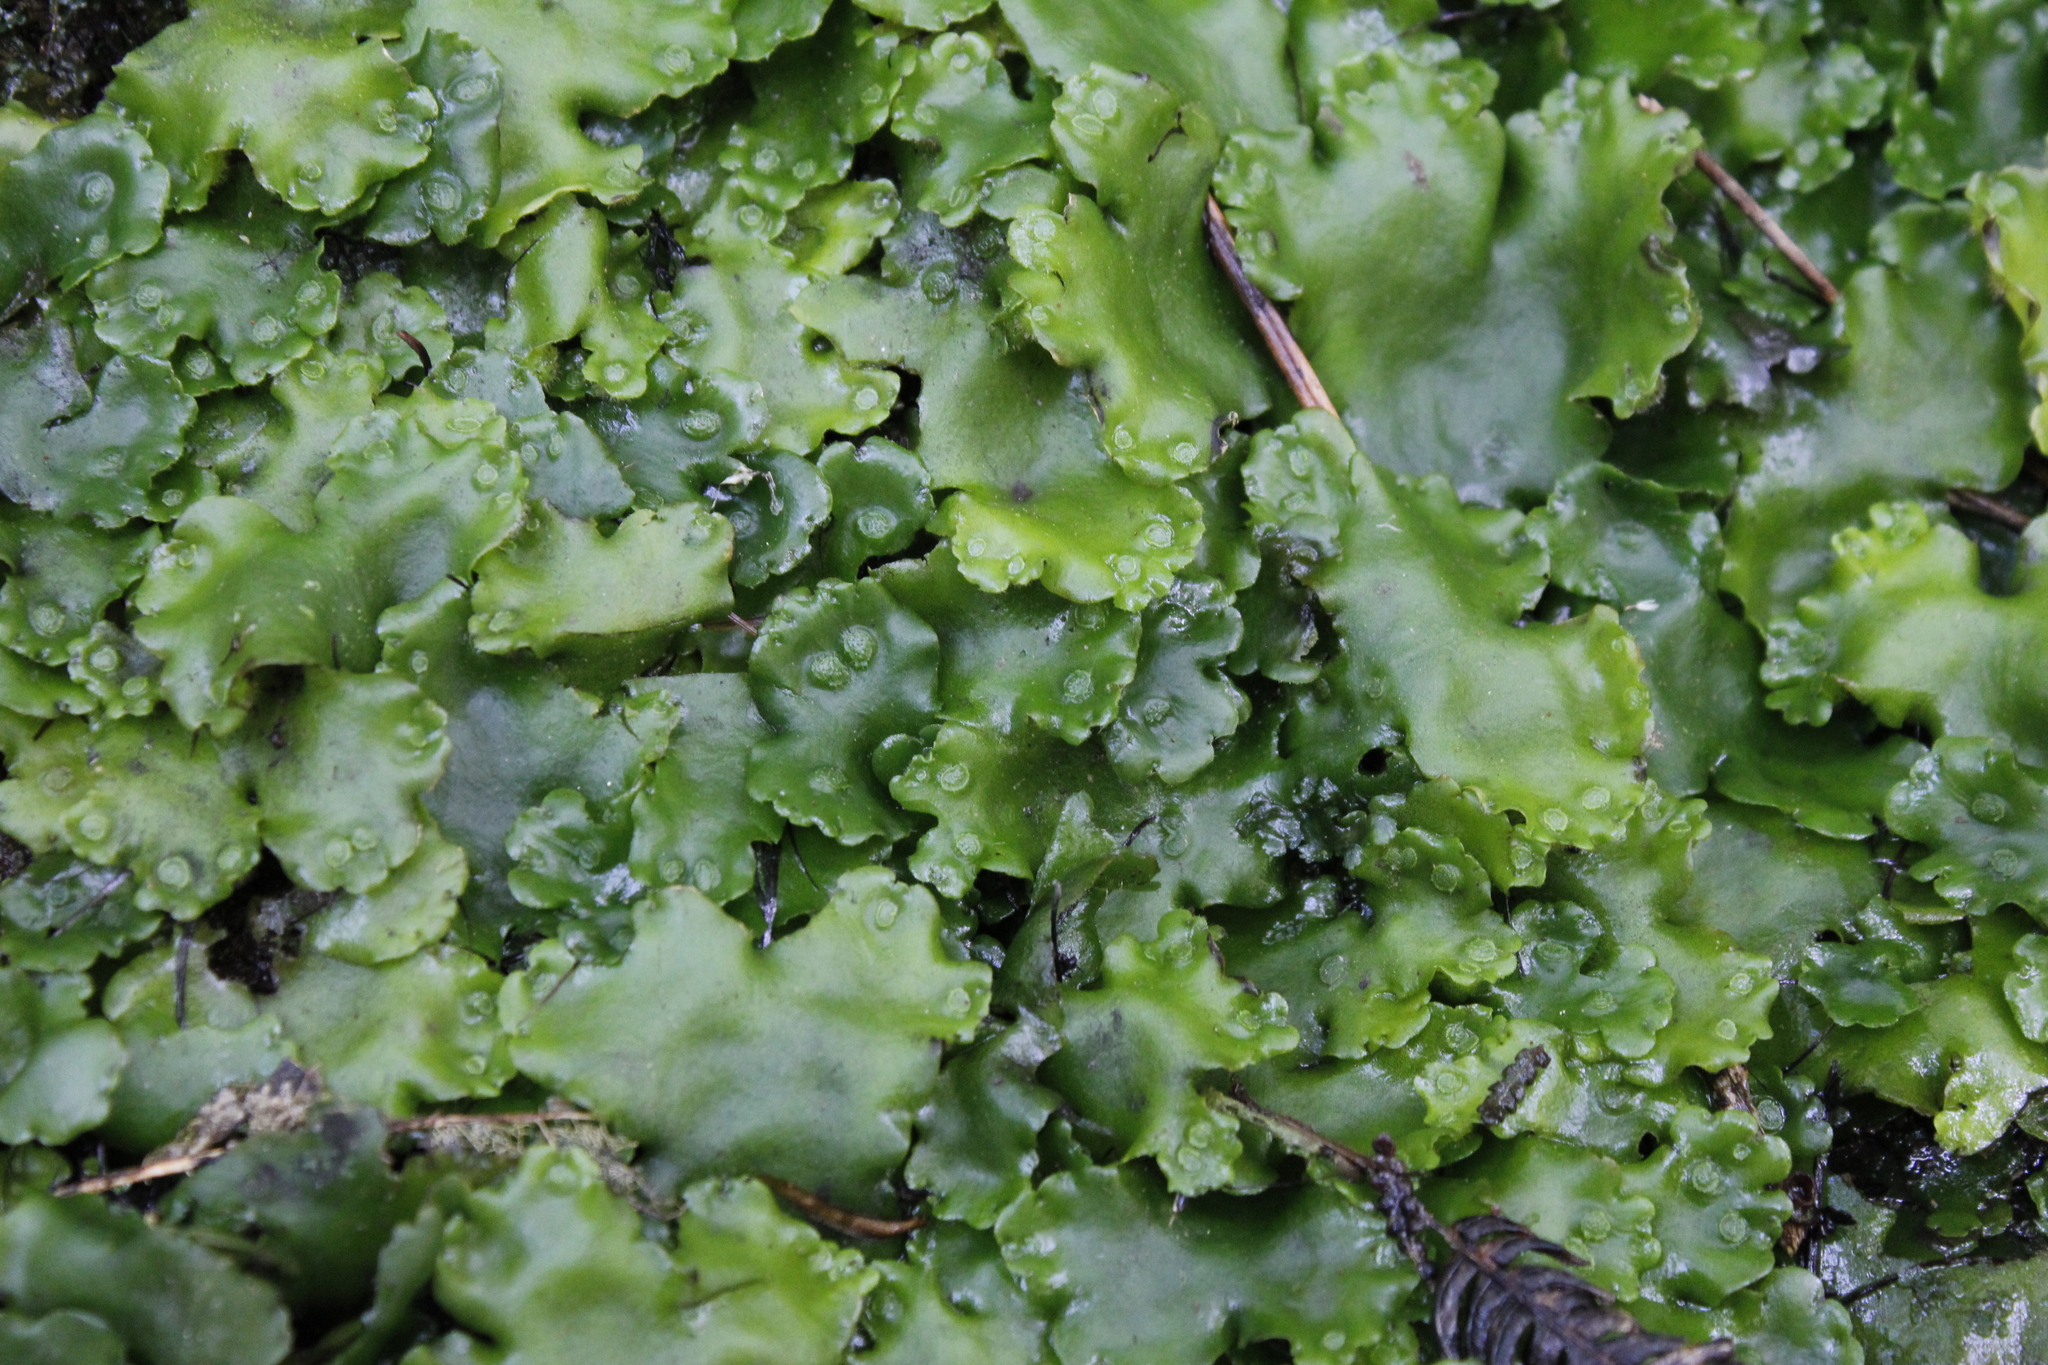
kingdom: Plantae
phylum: Marchantiophyta
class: Marchantiopsida
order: Marchantiales
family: Monocleaceae
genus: Monoclea
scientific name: Monoclea forsteri
